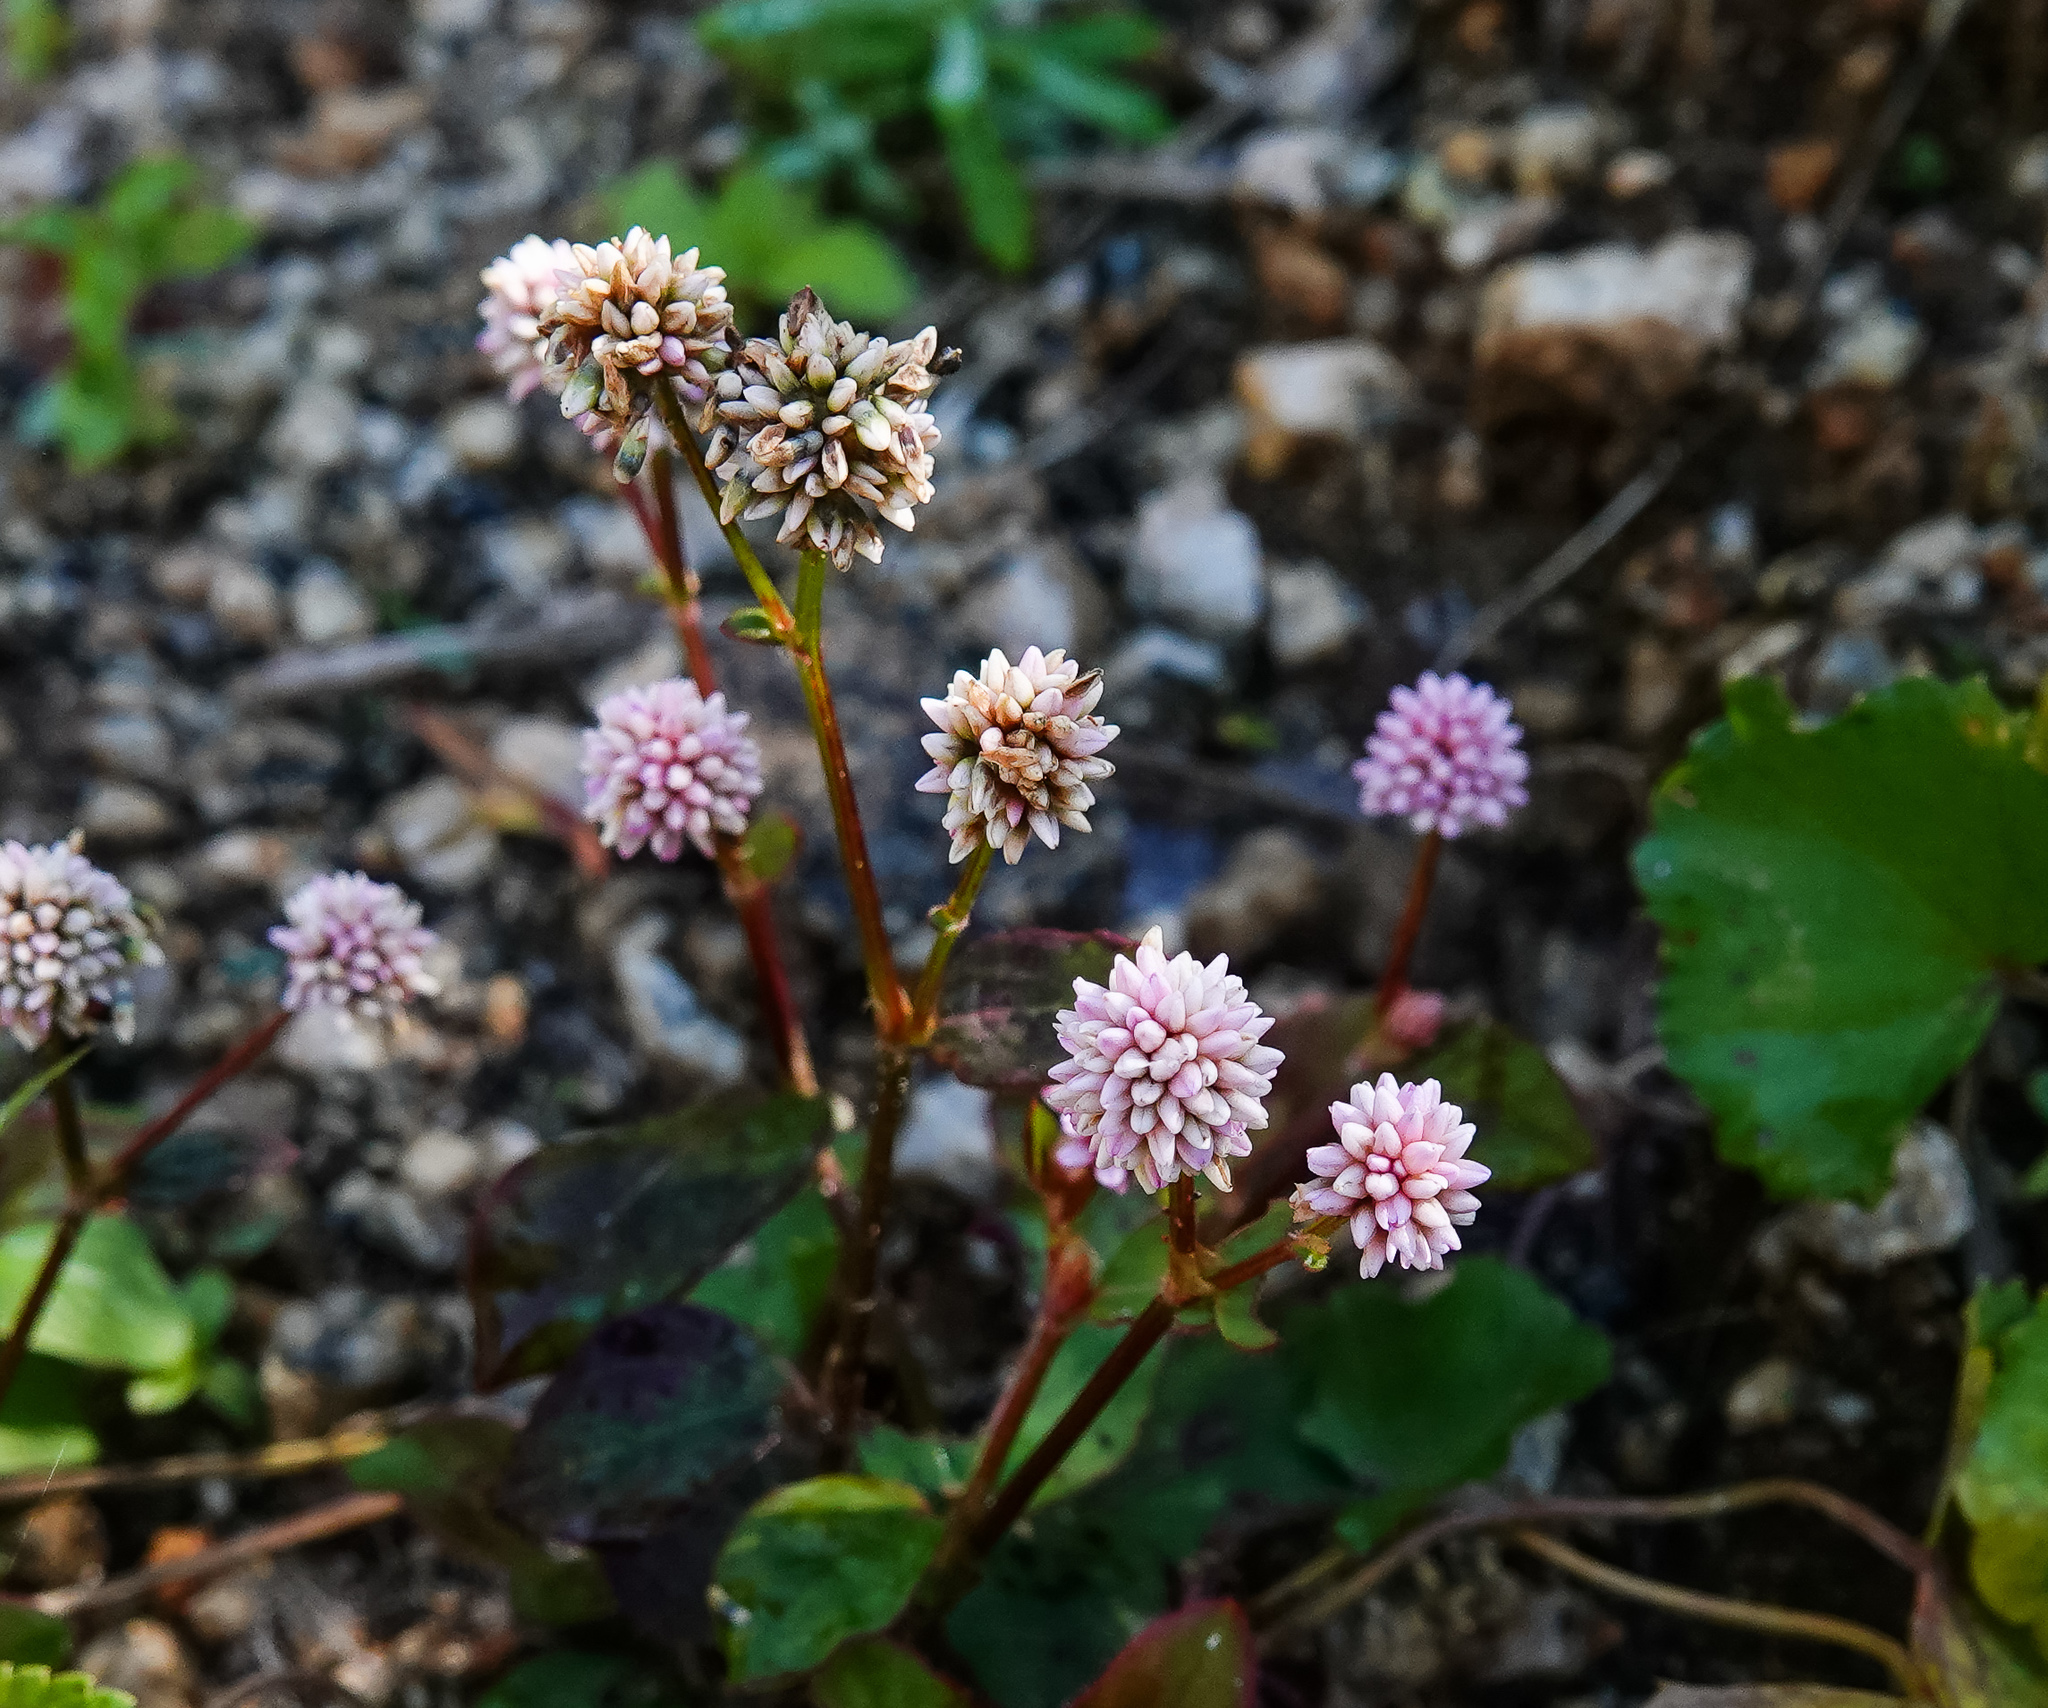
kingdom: Plantae
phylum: Tracheophyta
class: Magnoliopsida
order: Caryophyllales
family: Polygonaceae
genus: Persicaria
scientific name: Persicaria capitata
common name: Pinkhead smartweed
